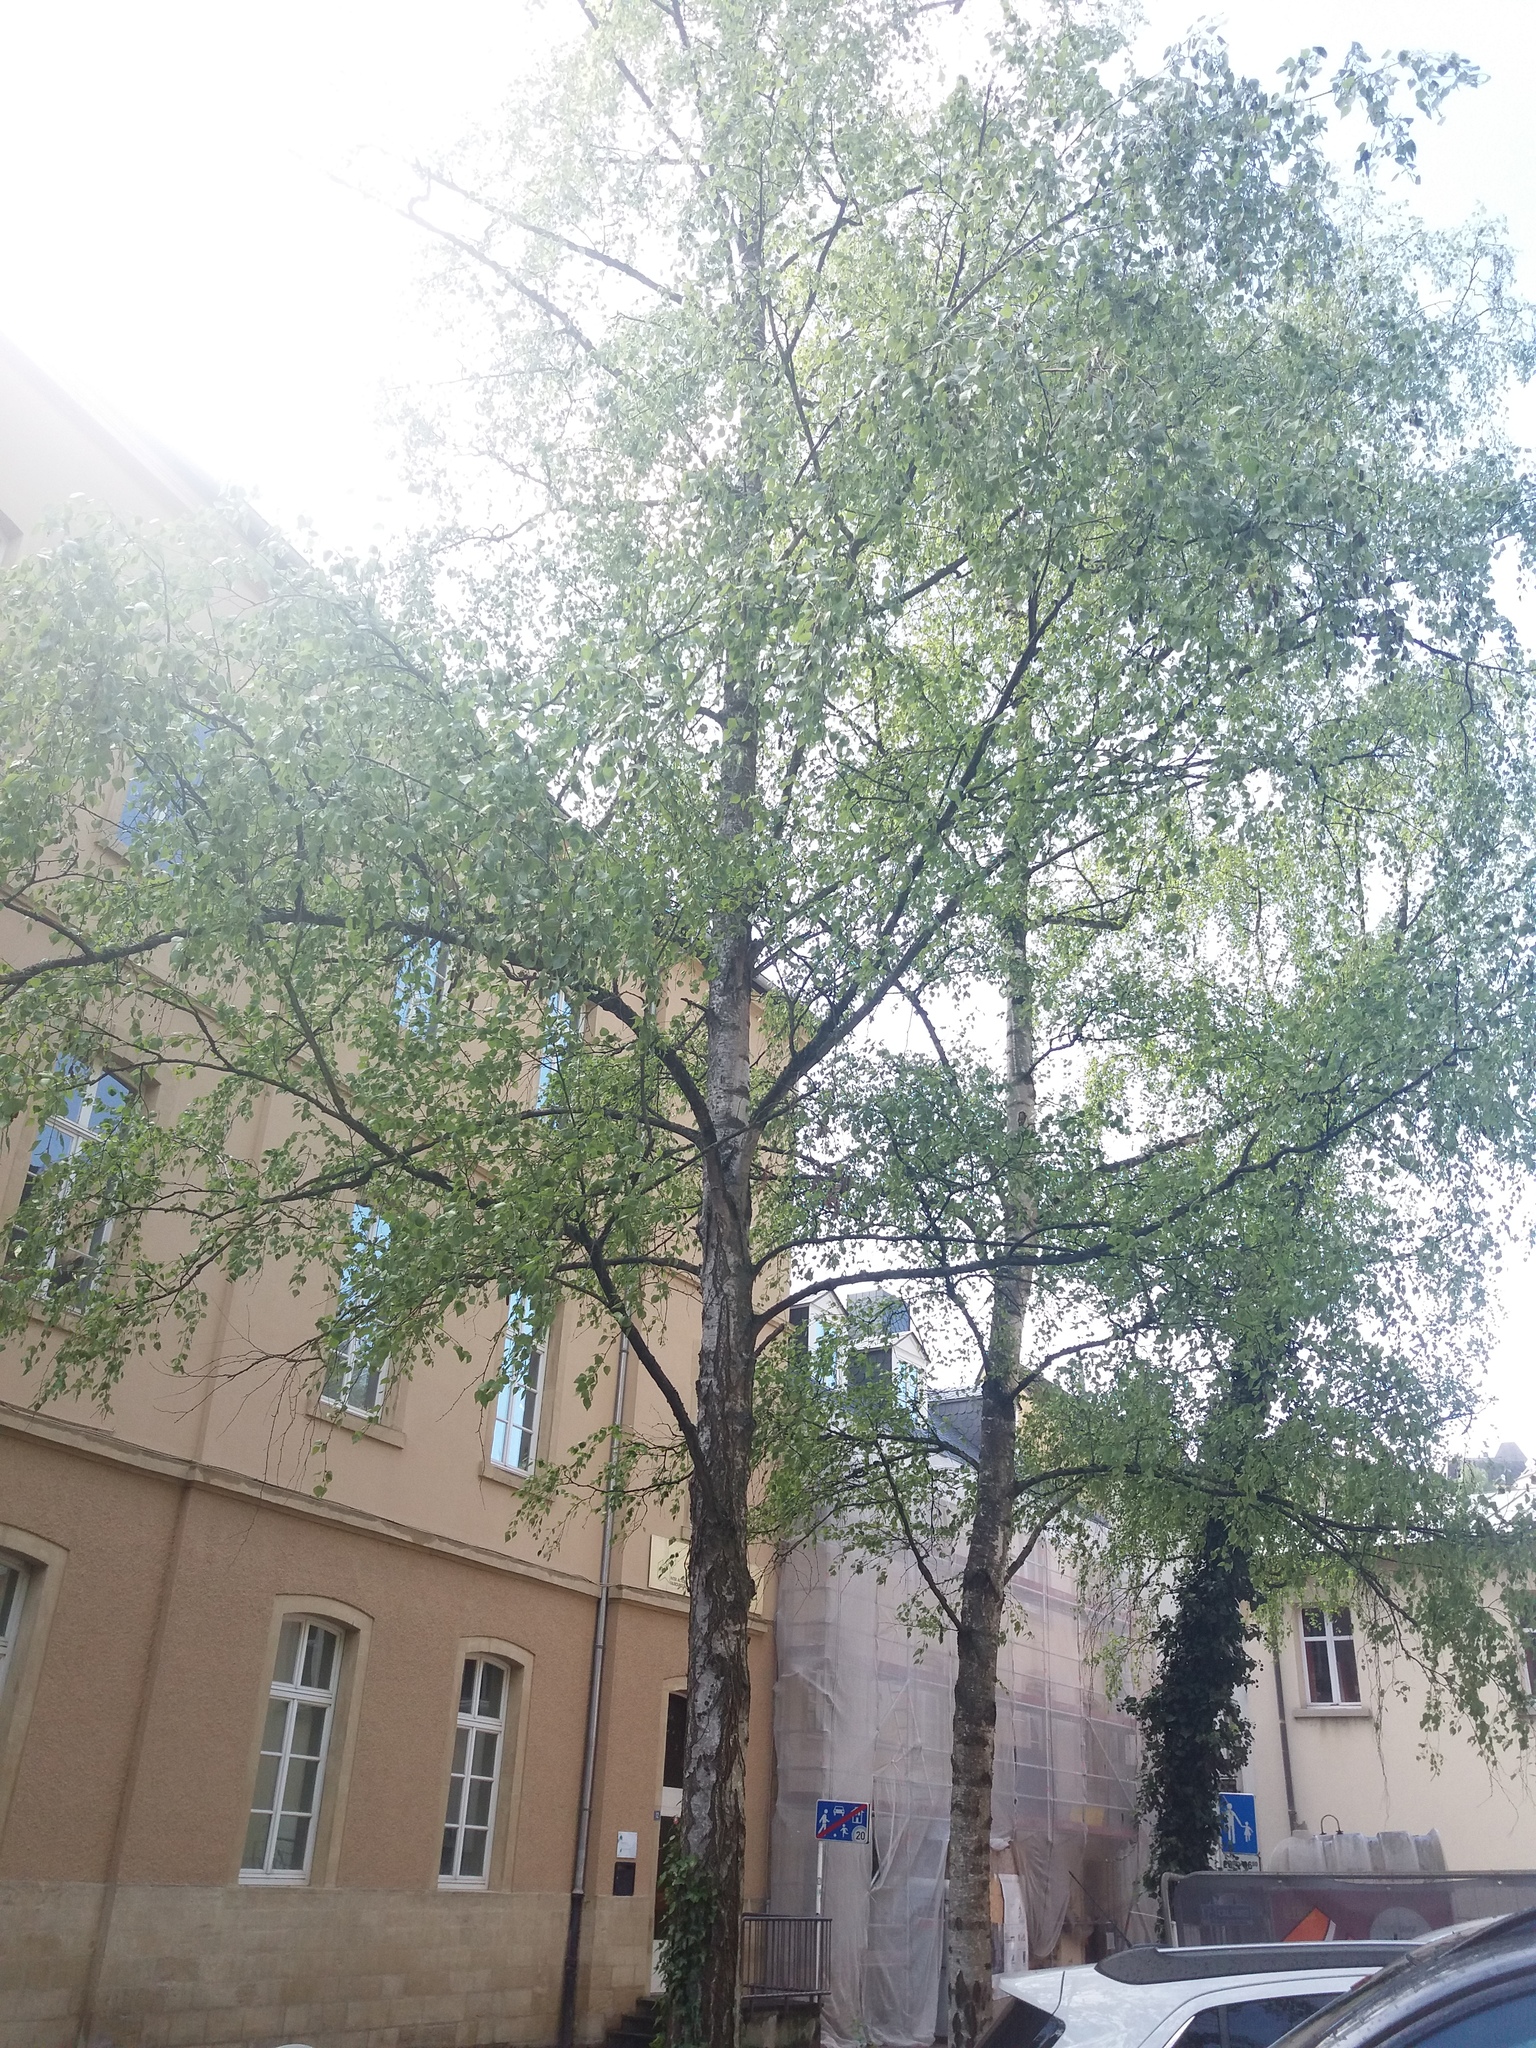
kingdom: Plantae
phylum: Tracheophyta
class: Magnoliopsida
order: Fagales
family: Betulaceae
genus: Betula
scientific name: Betula pendula
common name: Silver birch
